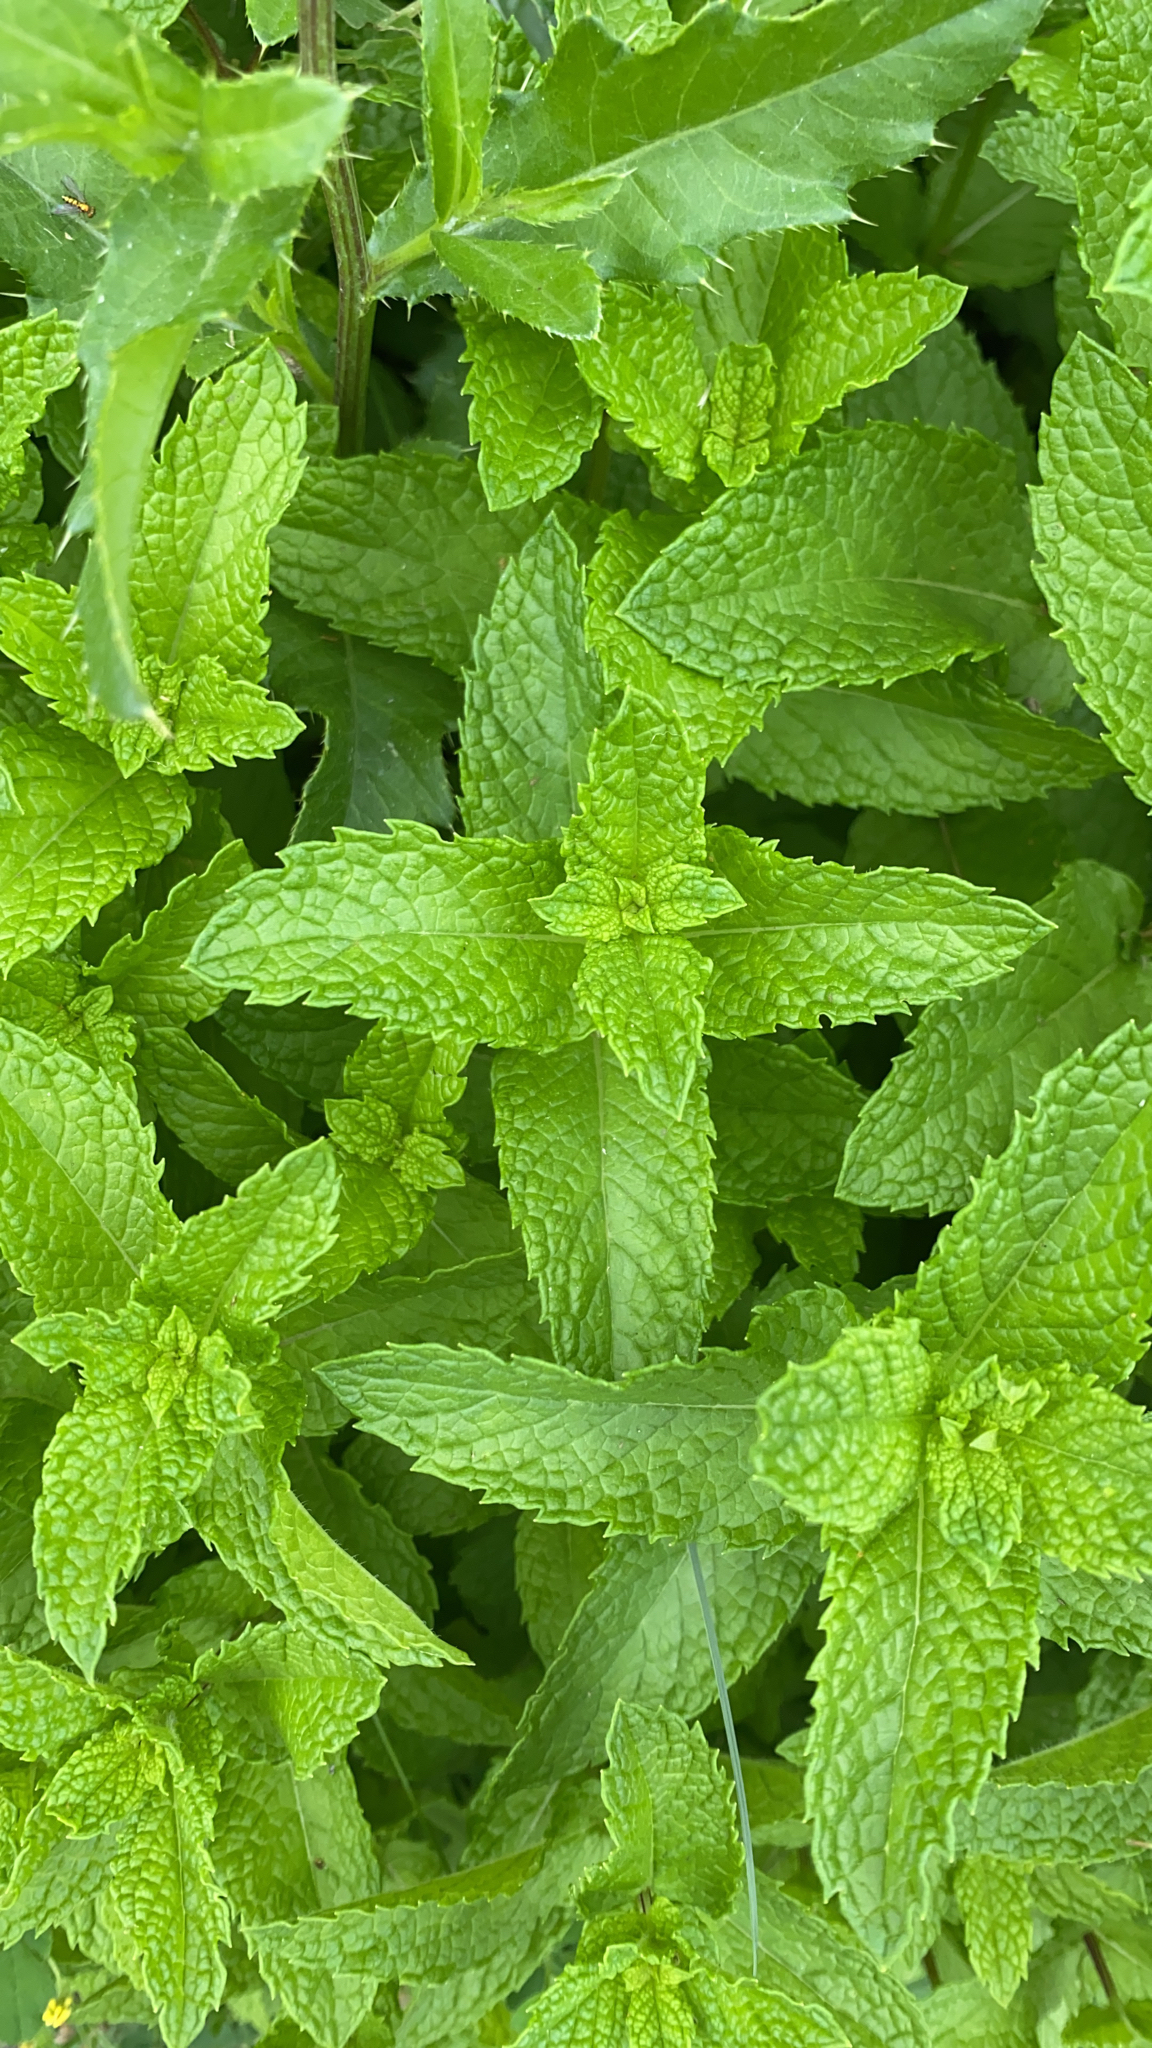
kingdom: Plantae
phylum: Tracheophyta
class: Magnoliopsida
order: Lamiales
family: Lamiaceae
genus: Mentha
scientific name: Mentha spicata
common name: Spearmint
